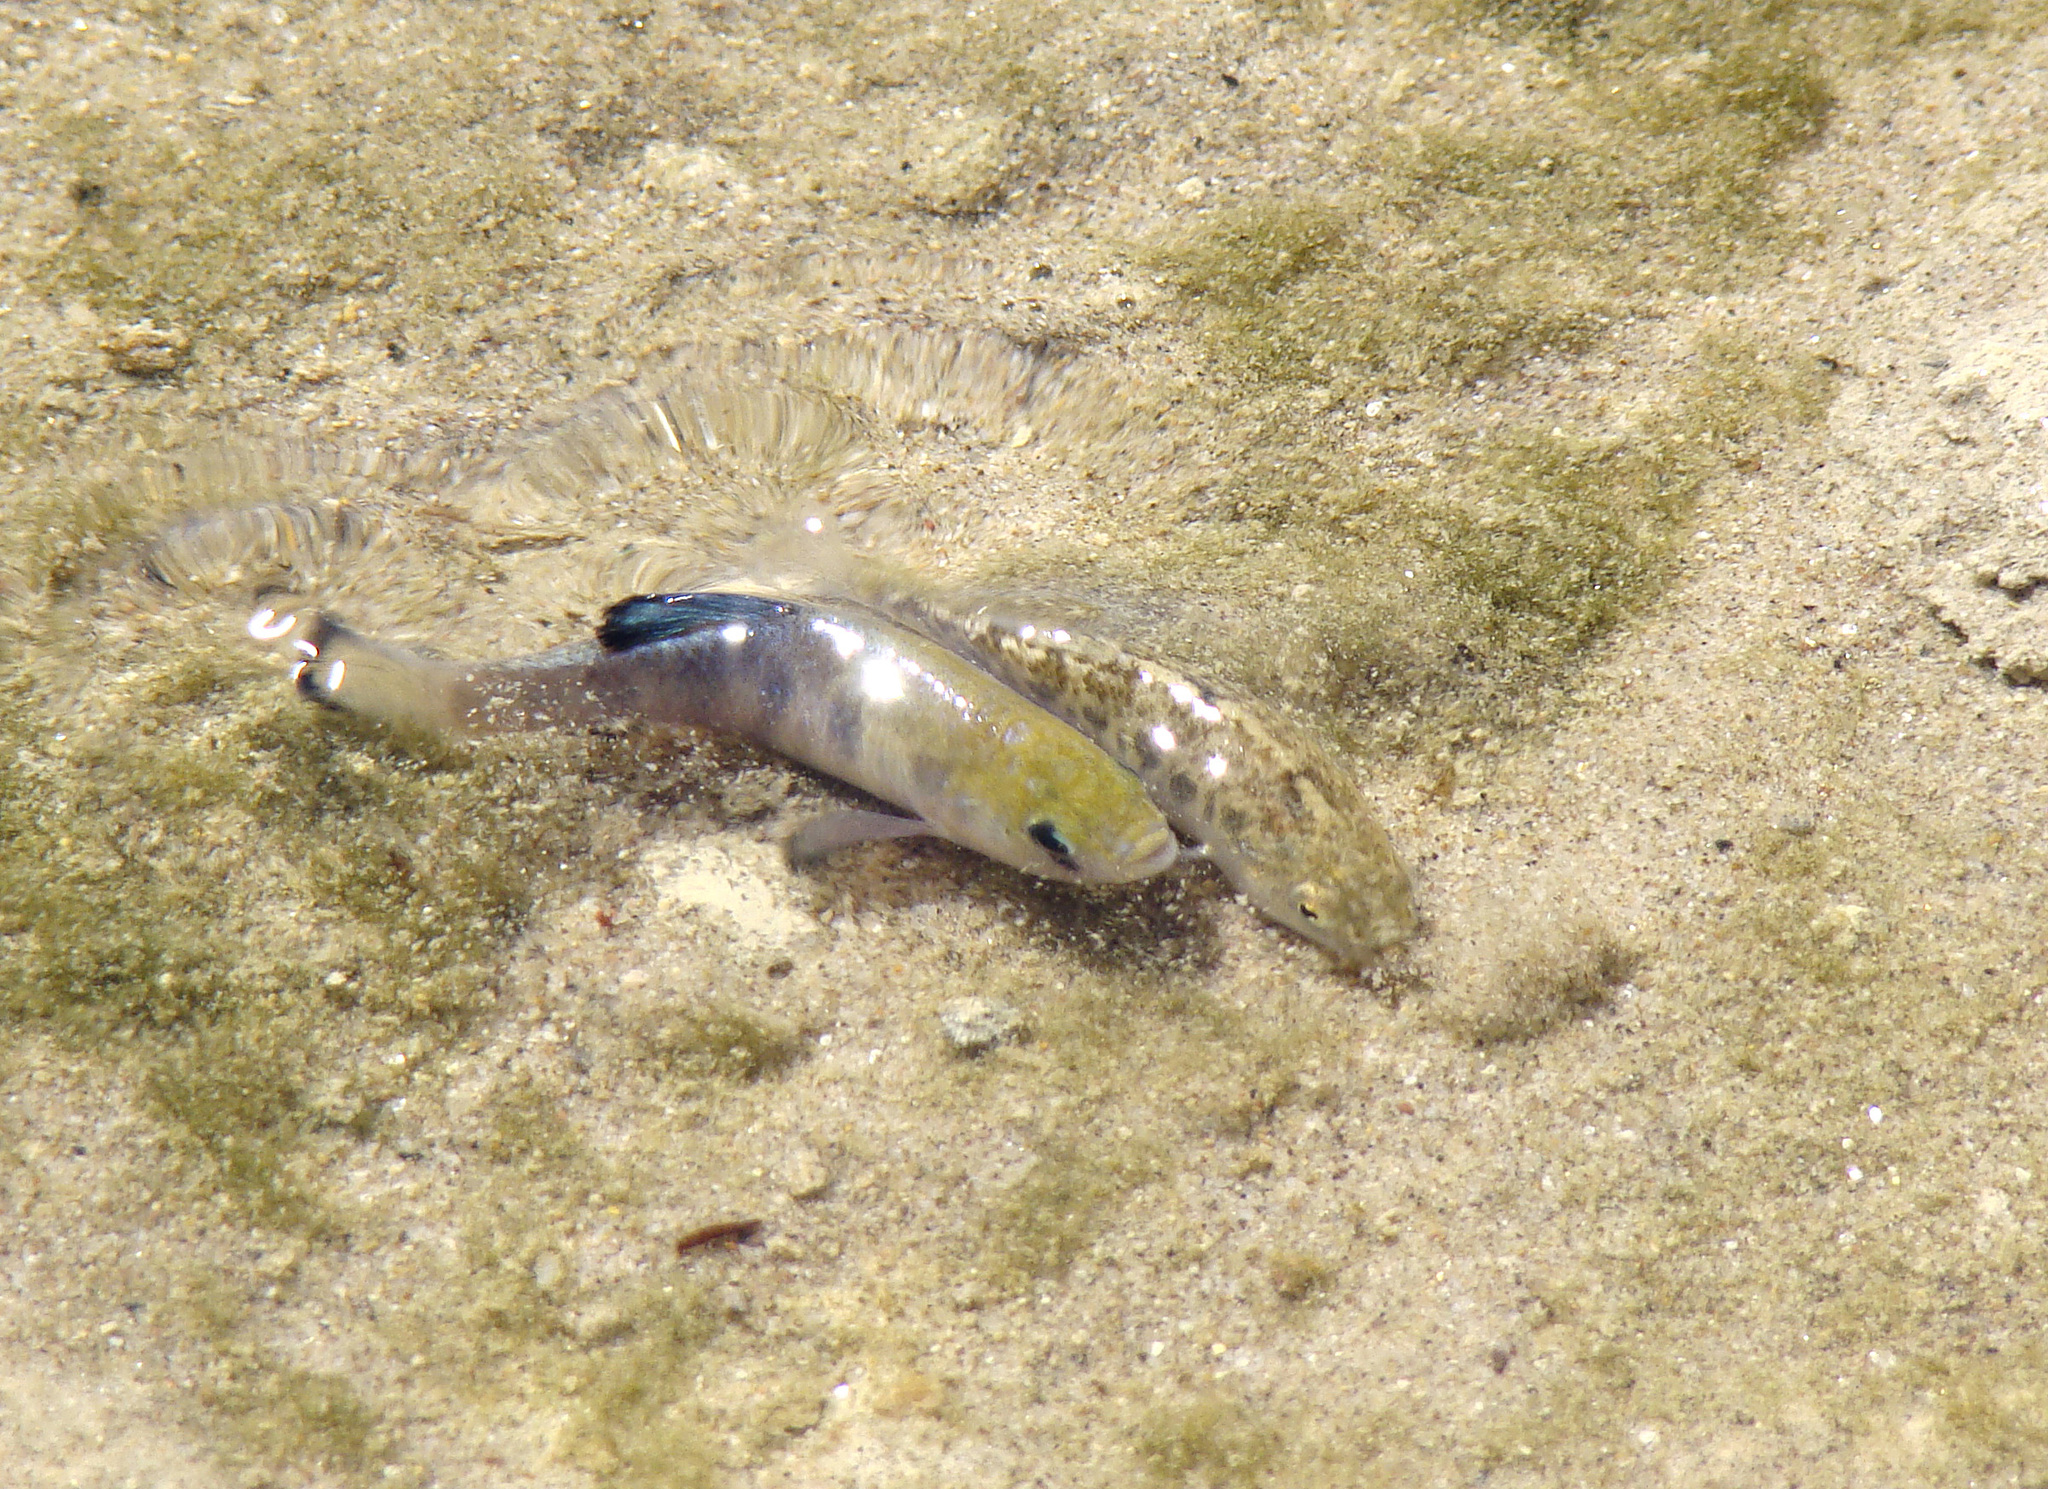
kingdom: Animalia
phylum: Chordata
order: Cyprinodontiformes
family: Cyprinodontidae
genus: Cyprinodon
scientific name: Cyprinodon salinus
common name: Cottonball marsh pupfish
